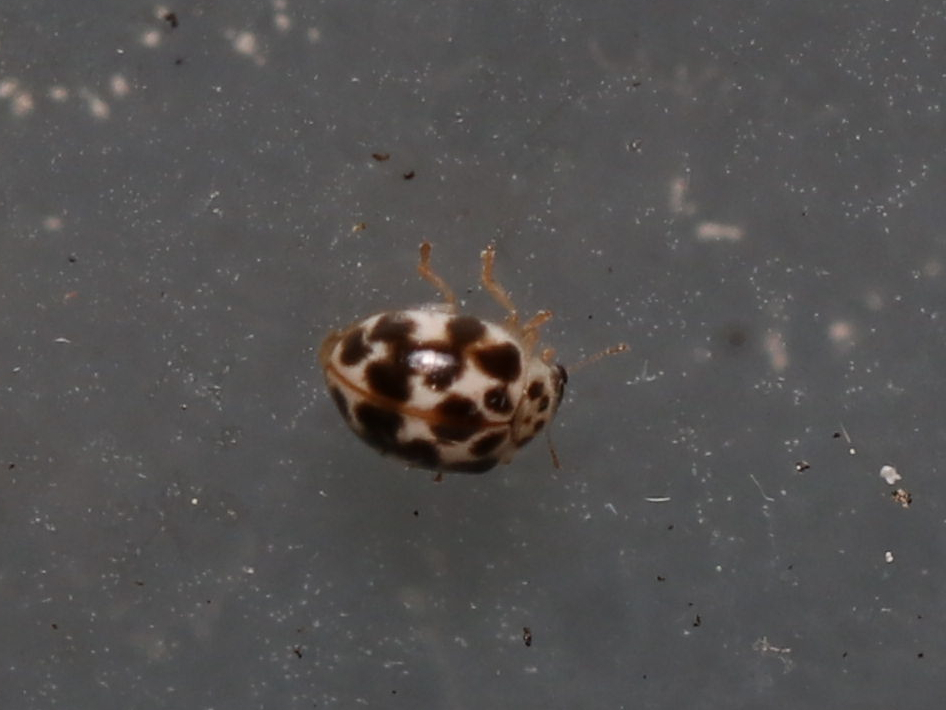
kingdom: Animalia
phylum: Arthropoda
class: Insecta
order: Coleoptera
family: Coccinellidae
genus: Psyllobora
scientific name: Psyllobora vigintimaculata
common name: Ladybird beetle
